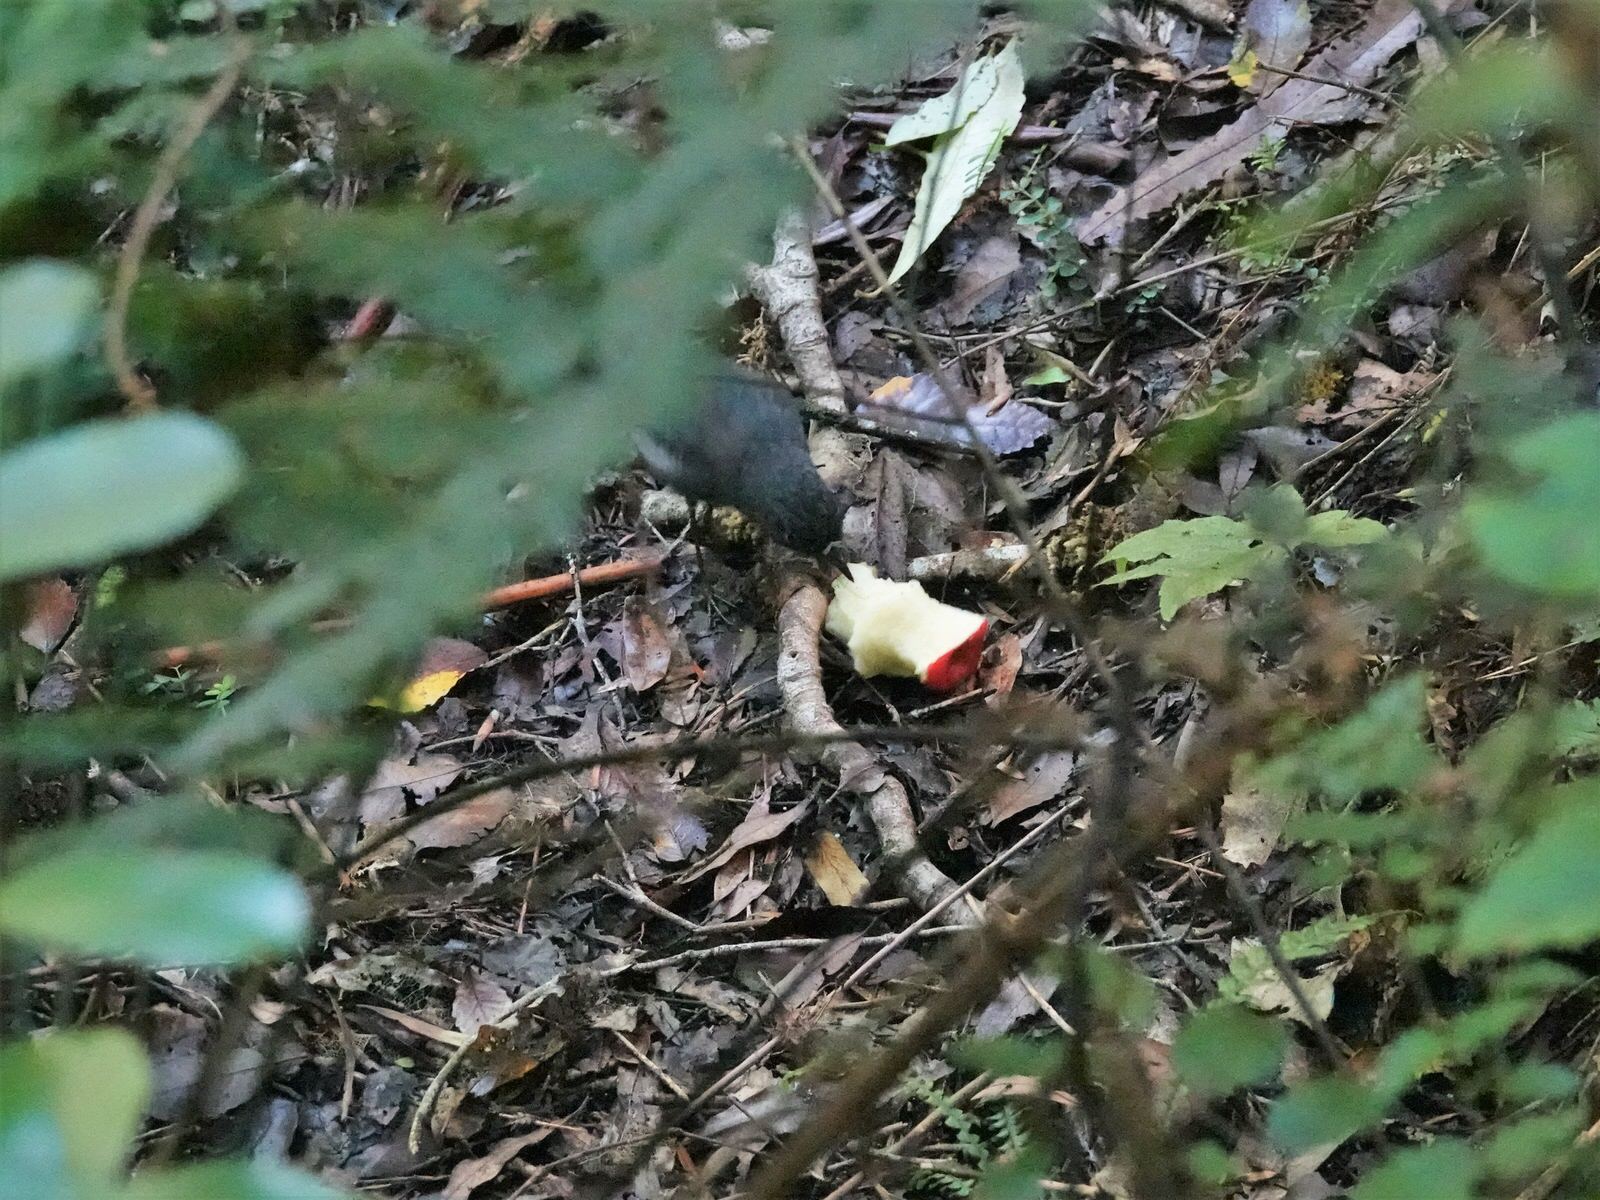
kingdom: Animalia
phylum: Chordata
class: Aves
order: Passeriformes
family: Petroicidae
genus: Petroica
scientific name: Petroica australis
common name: New zealand robin
